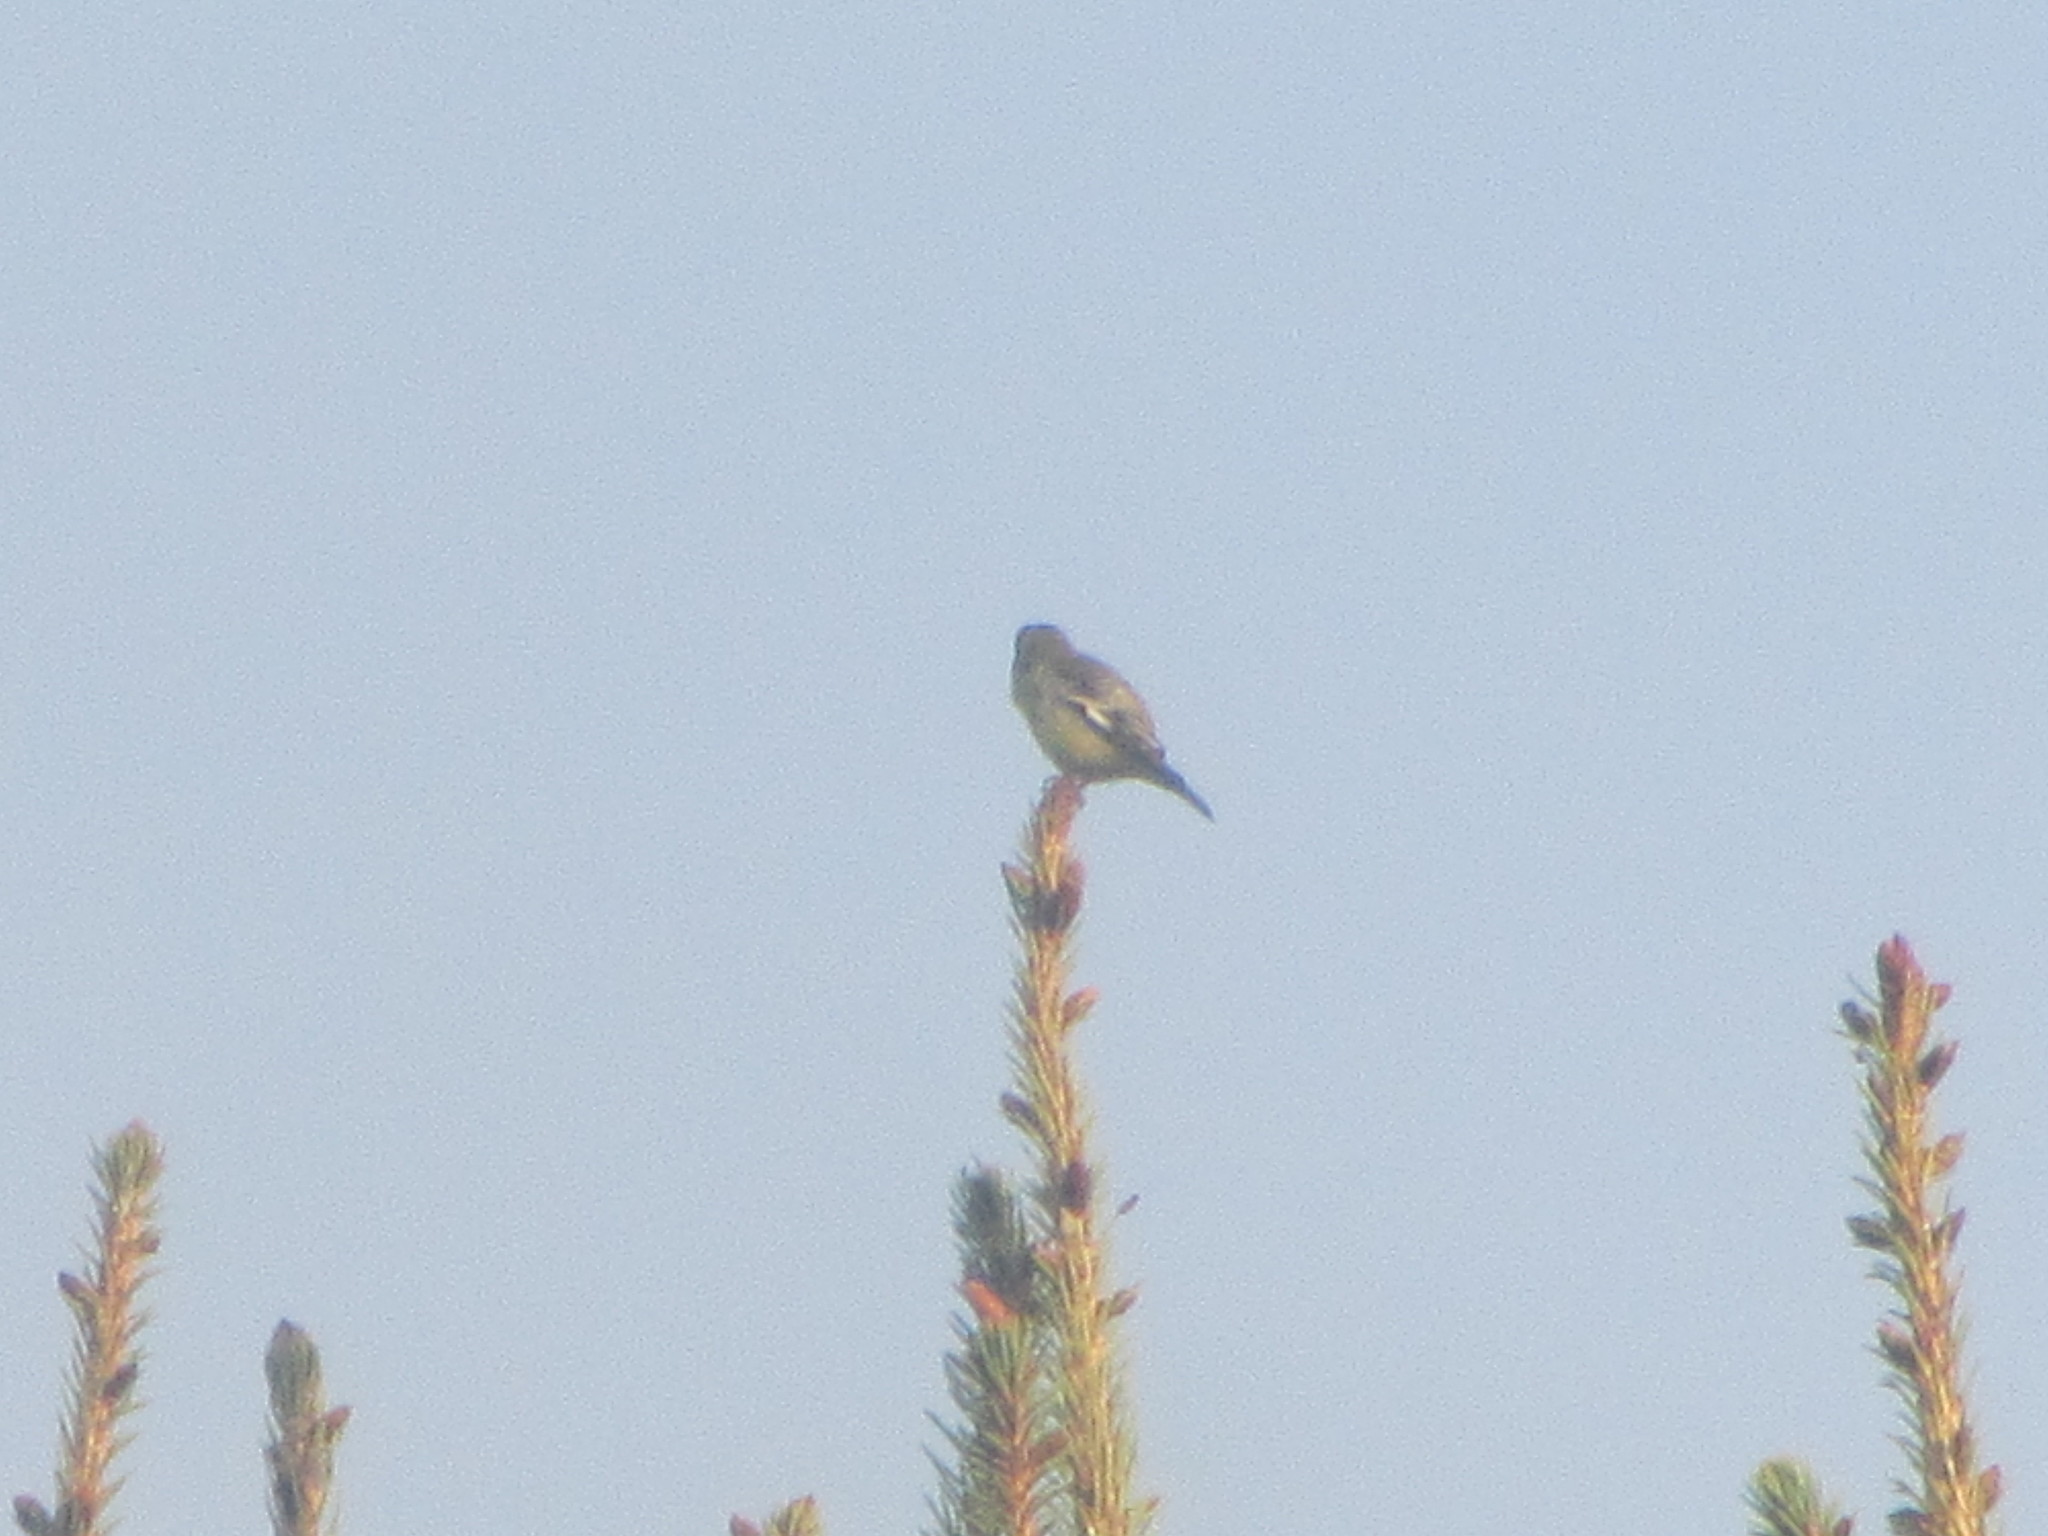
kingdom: Animalia
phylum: Chordata
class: Aves
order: Passeriformes
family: Fringillidae
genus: Spinus
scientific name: Spinus psaltria
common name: Lesser goldfinch
